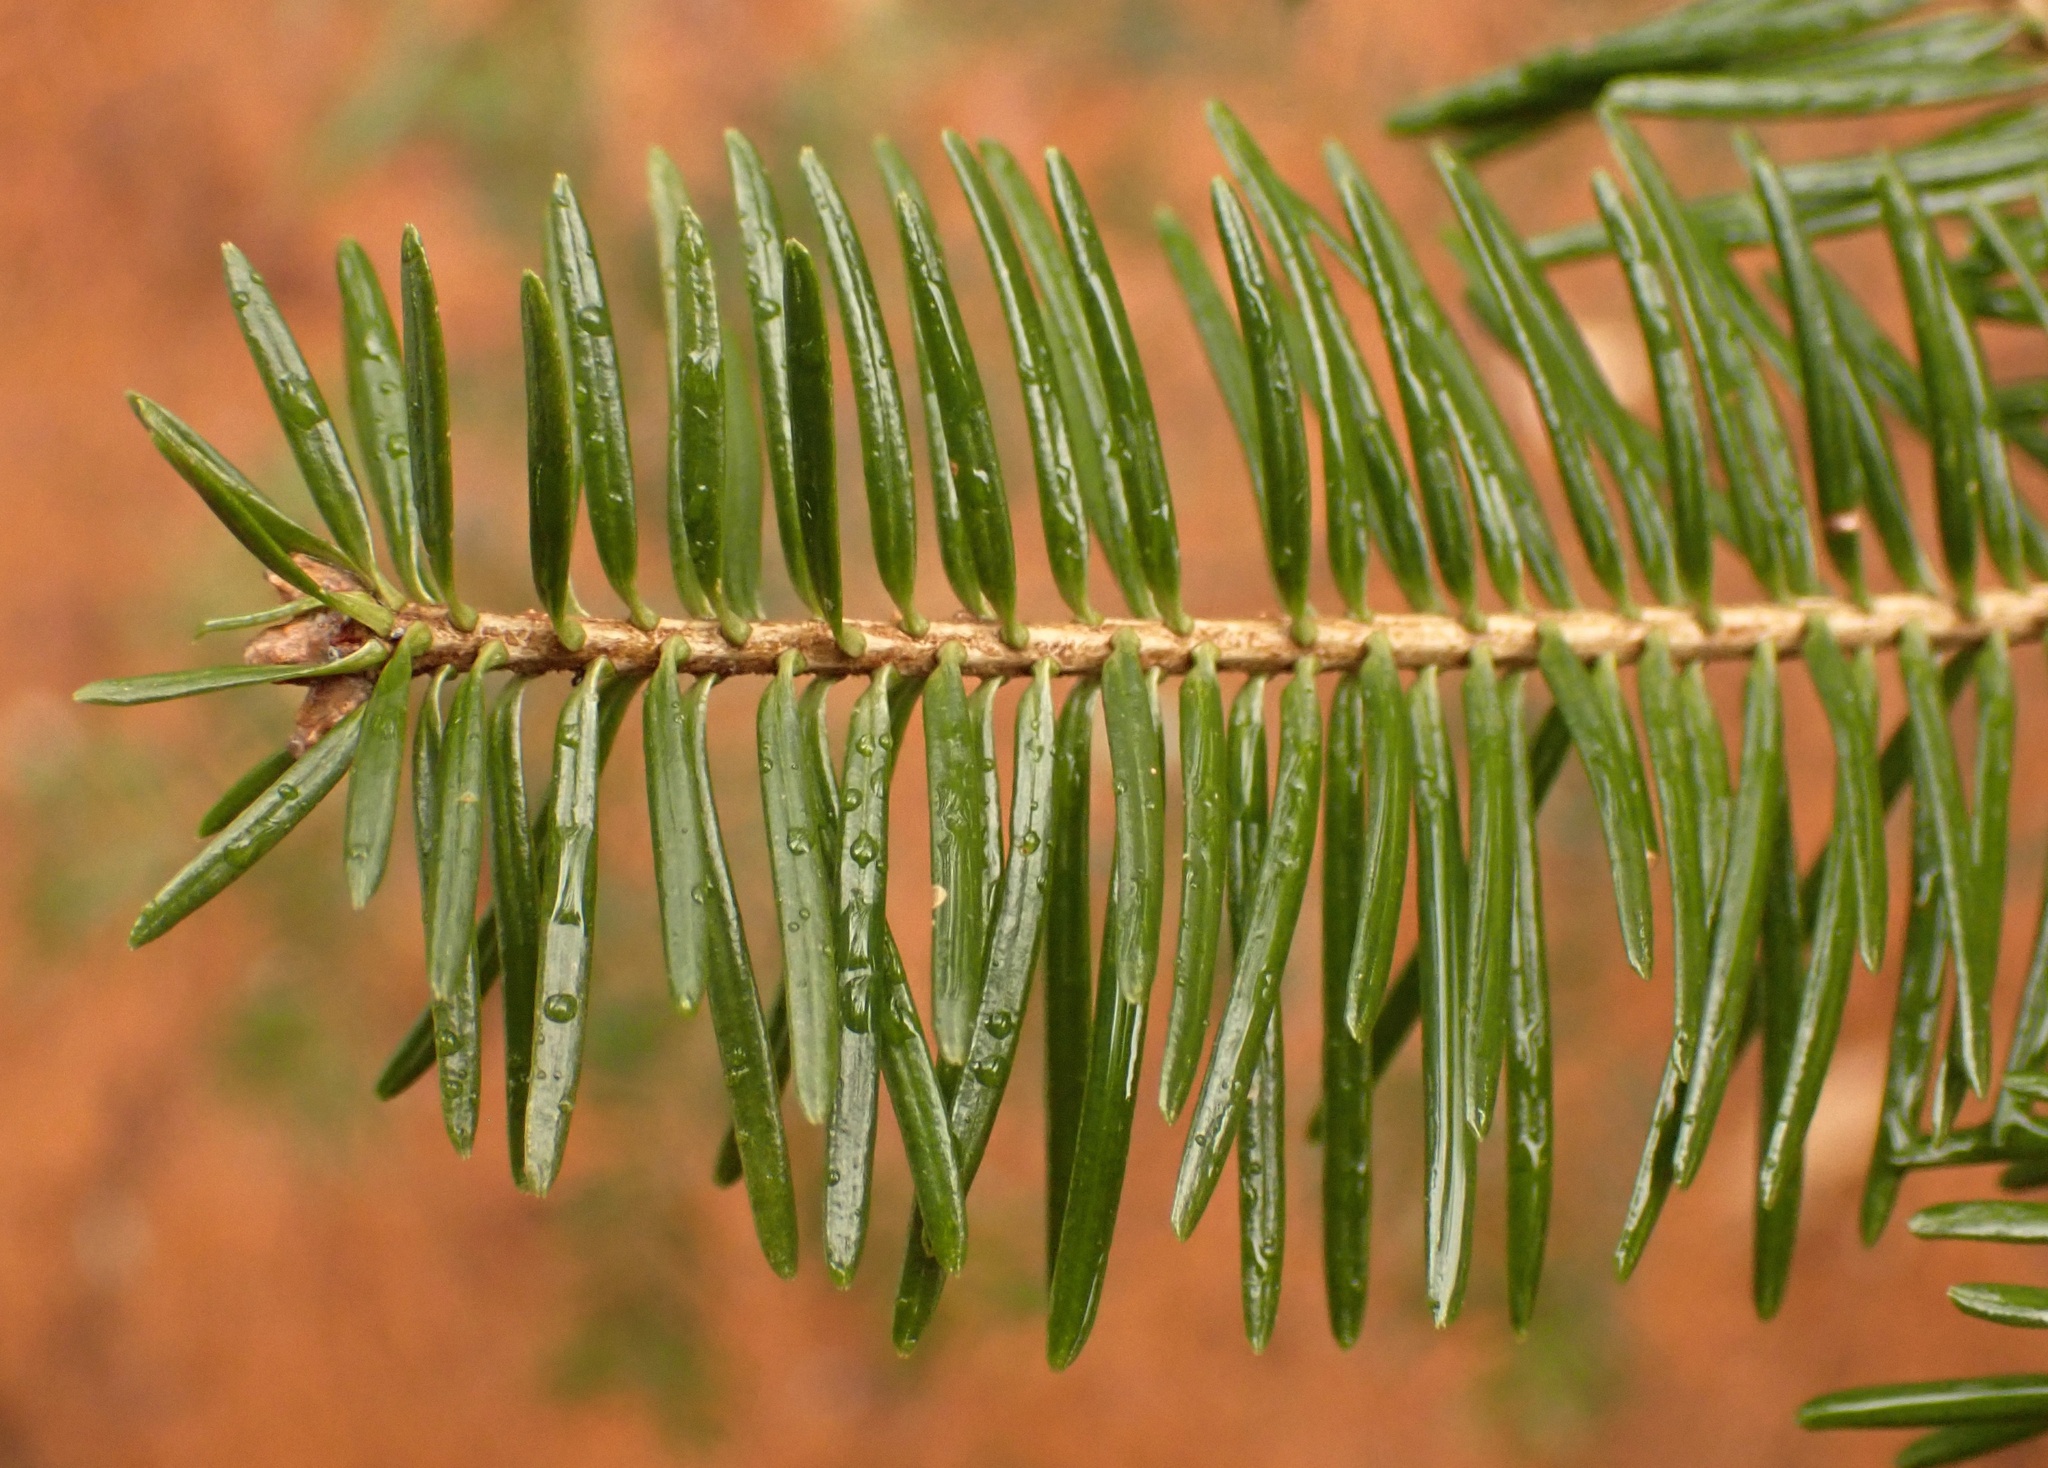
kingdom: Plantae
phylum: Tracheophyta
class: Pinopsida
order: Pinales
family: Pinaceae
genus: Abies
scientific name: Abies balsamea
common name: Balsam fir
